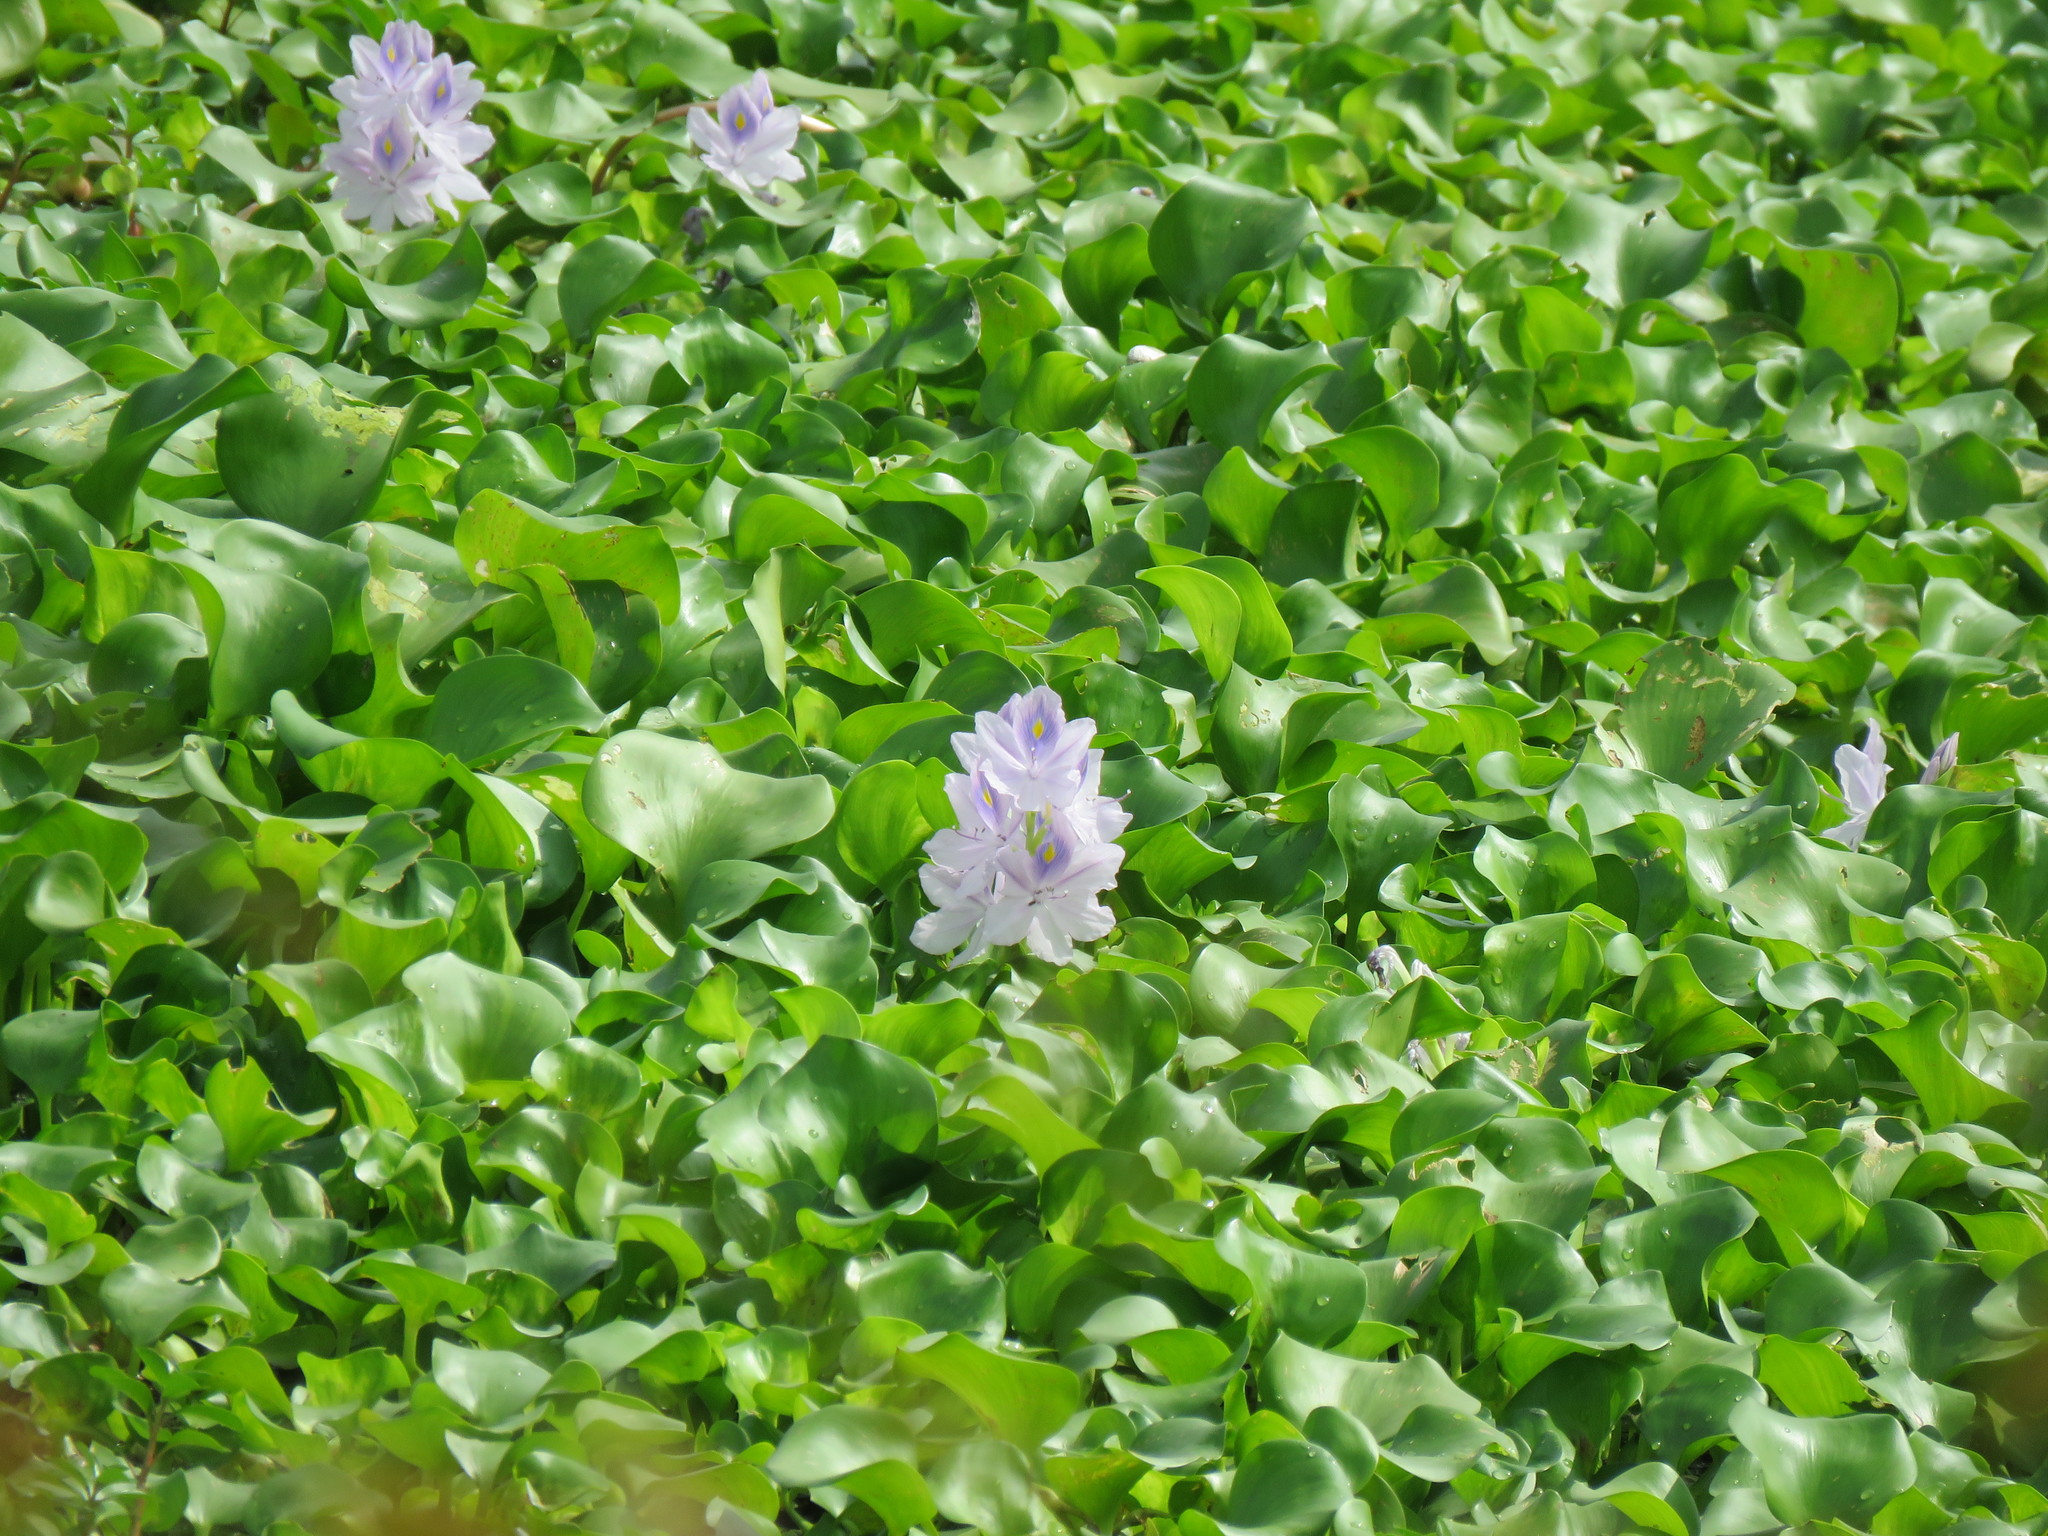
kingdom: Plantae
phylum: Tracheophyta
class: Liliopsida
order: Commelinales
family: Pontederiaceae
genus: Pontederia
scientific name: Pontederia crassipes
